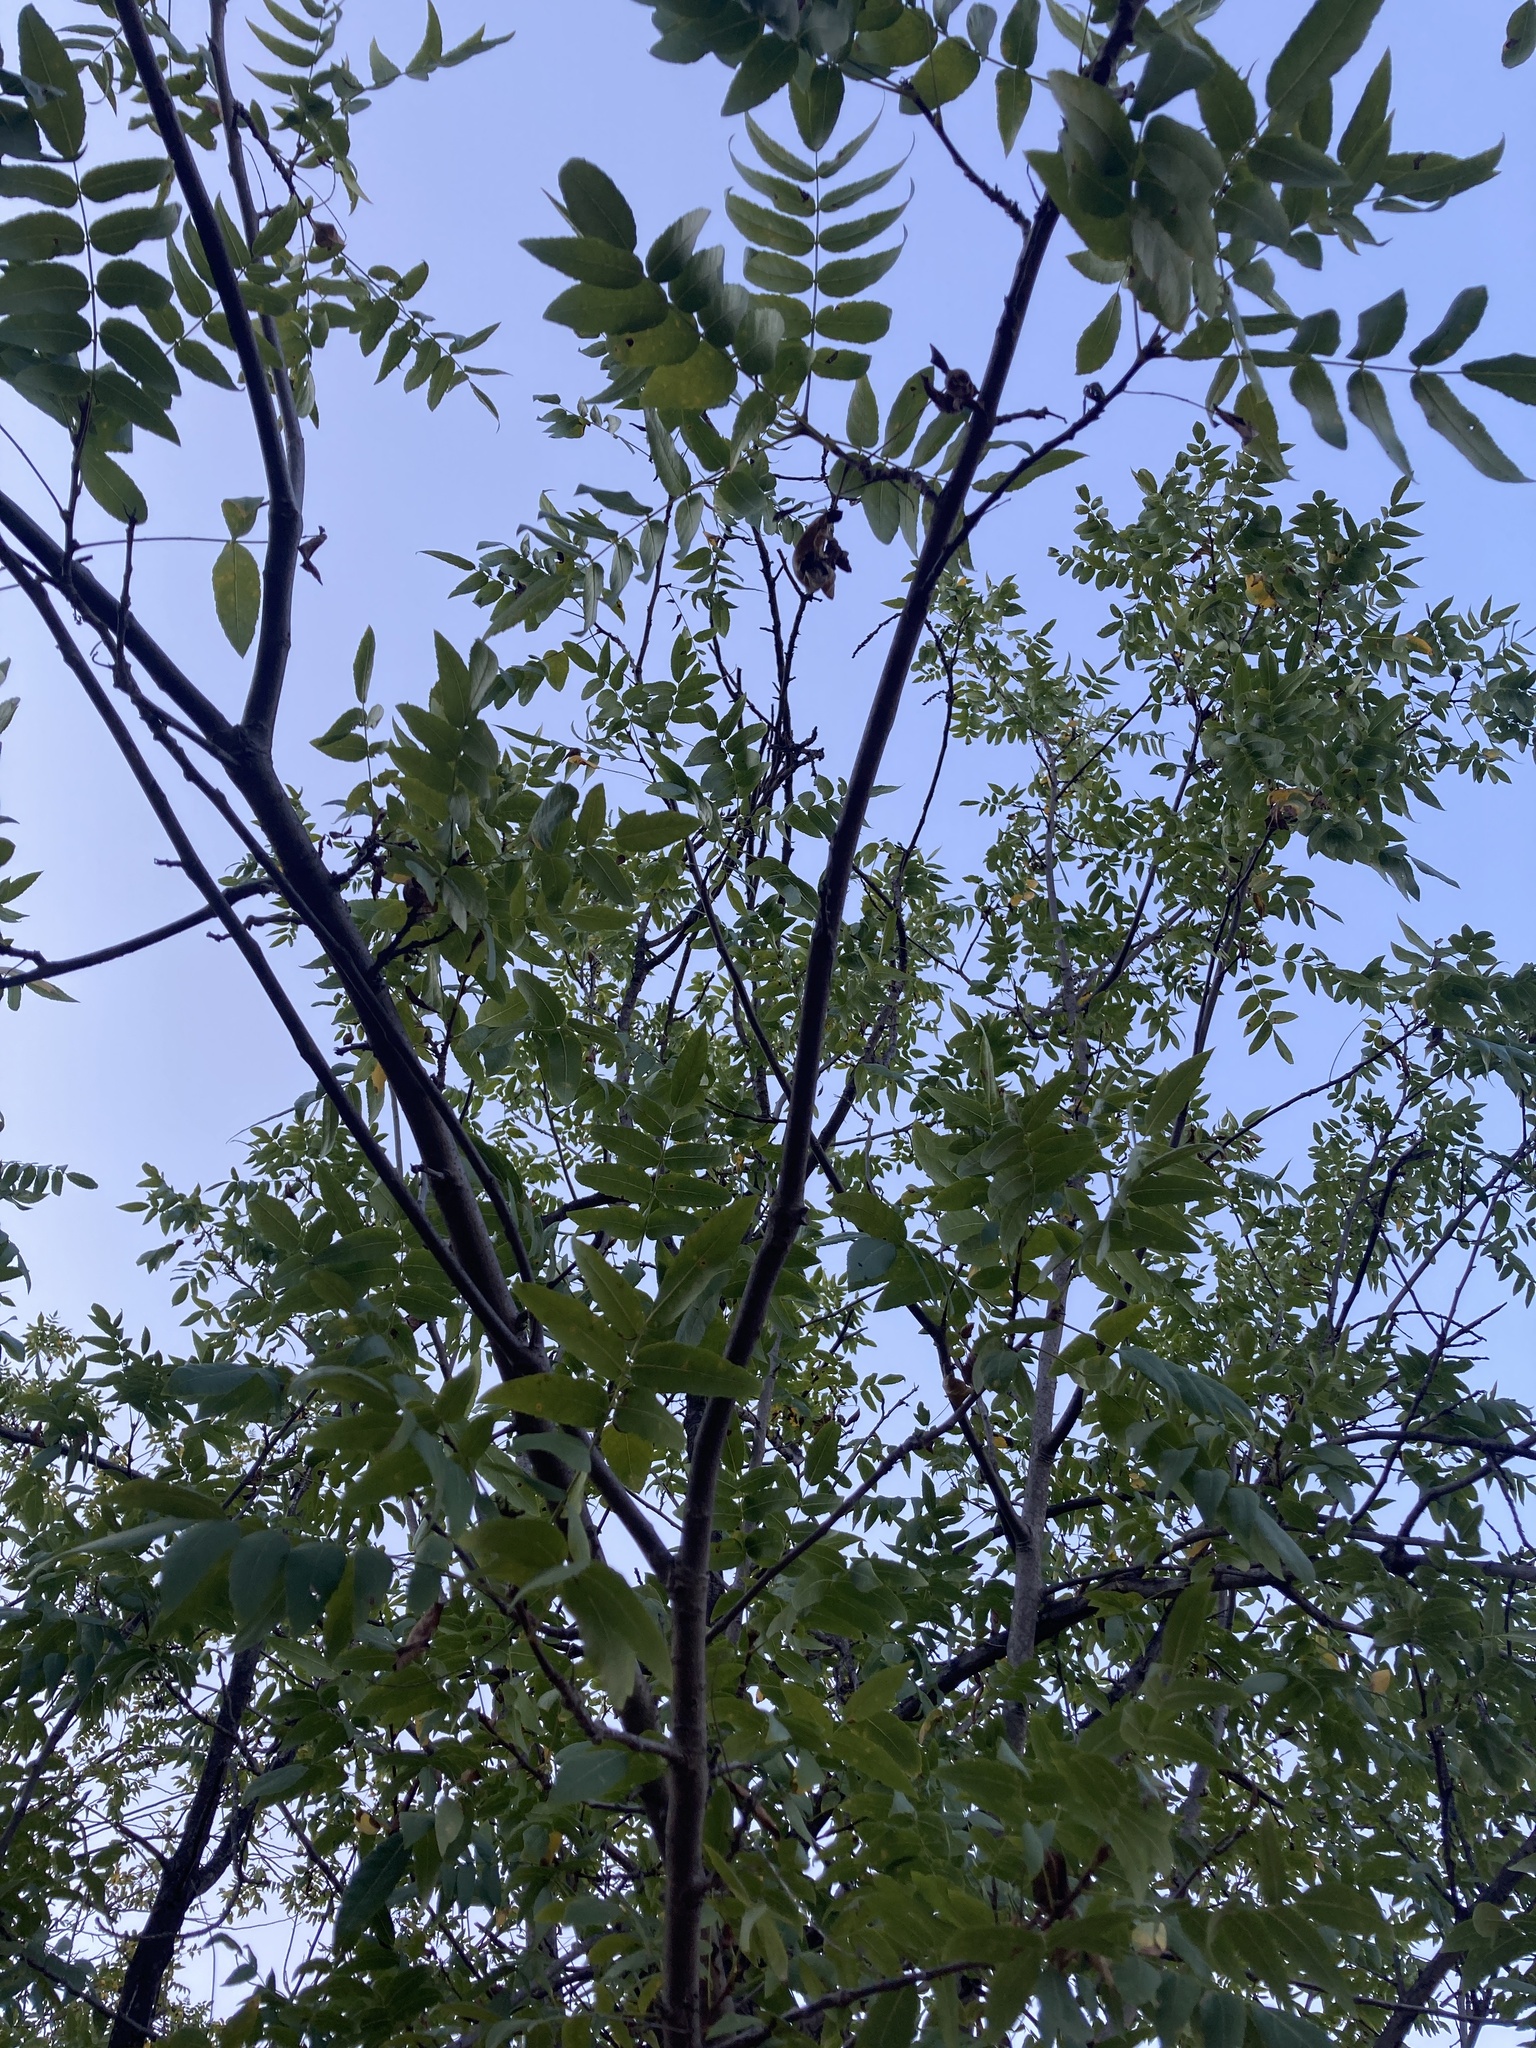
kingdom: Plantae
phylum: Tracheophyta
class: Magnoliopsida
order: Fagales
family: Juglandaceae
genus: Juglans
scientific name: Juglans californica
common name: Southern california black walnut
